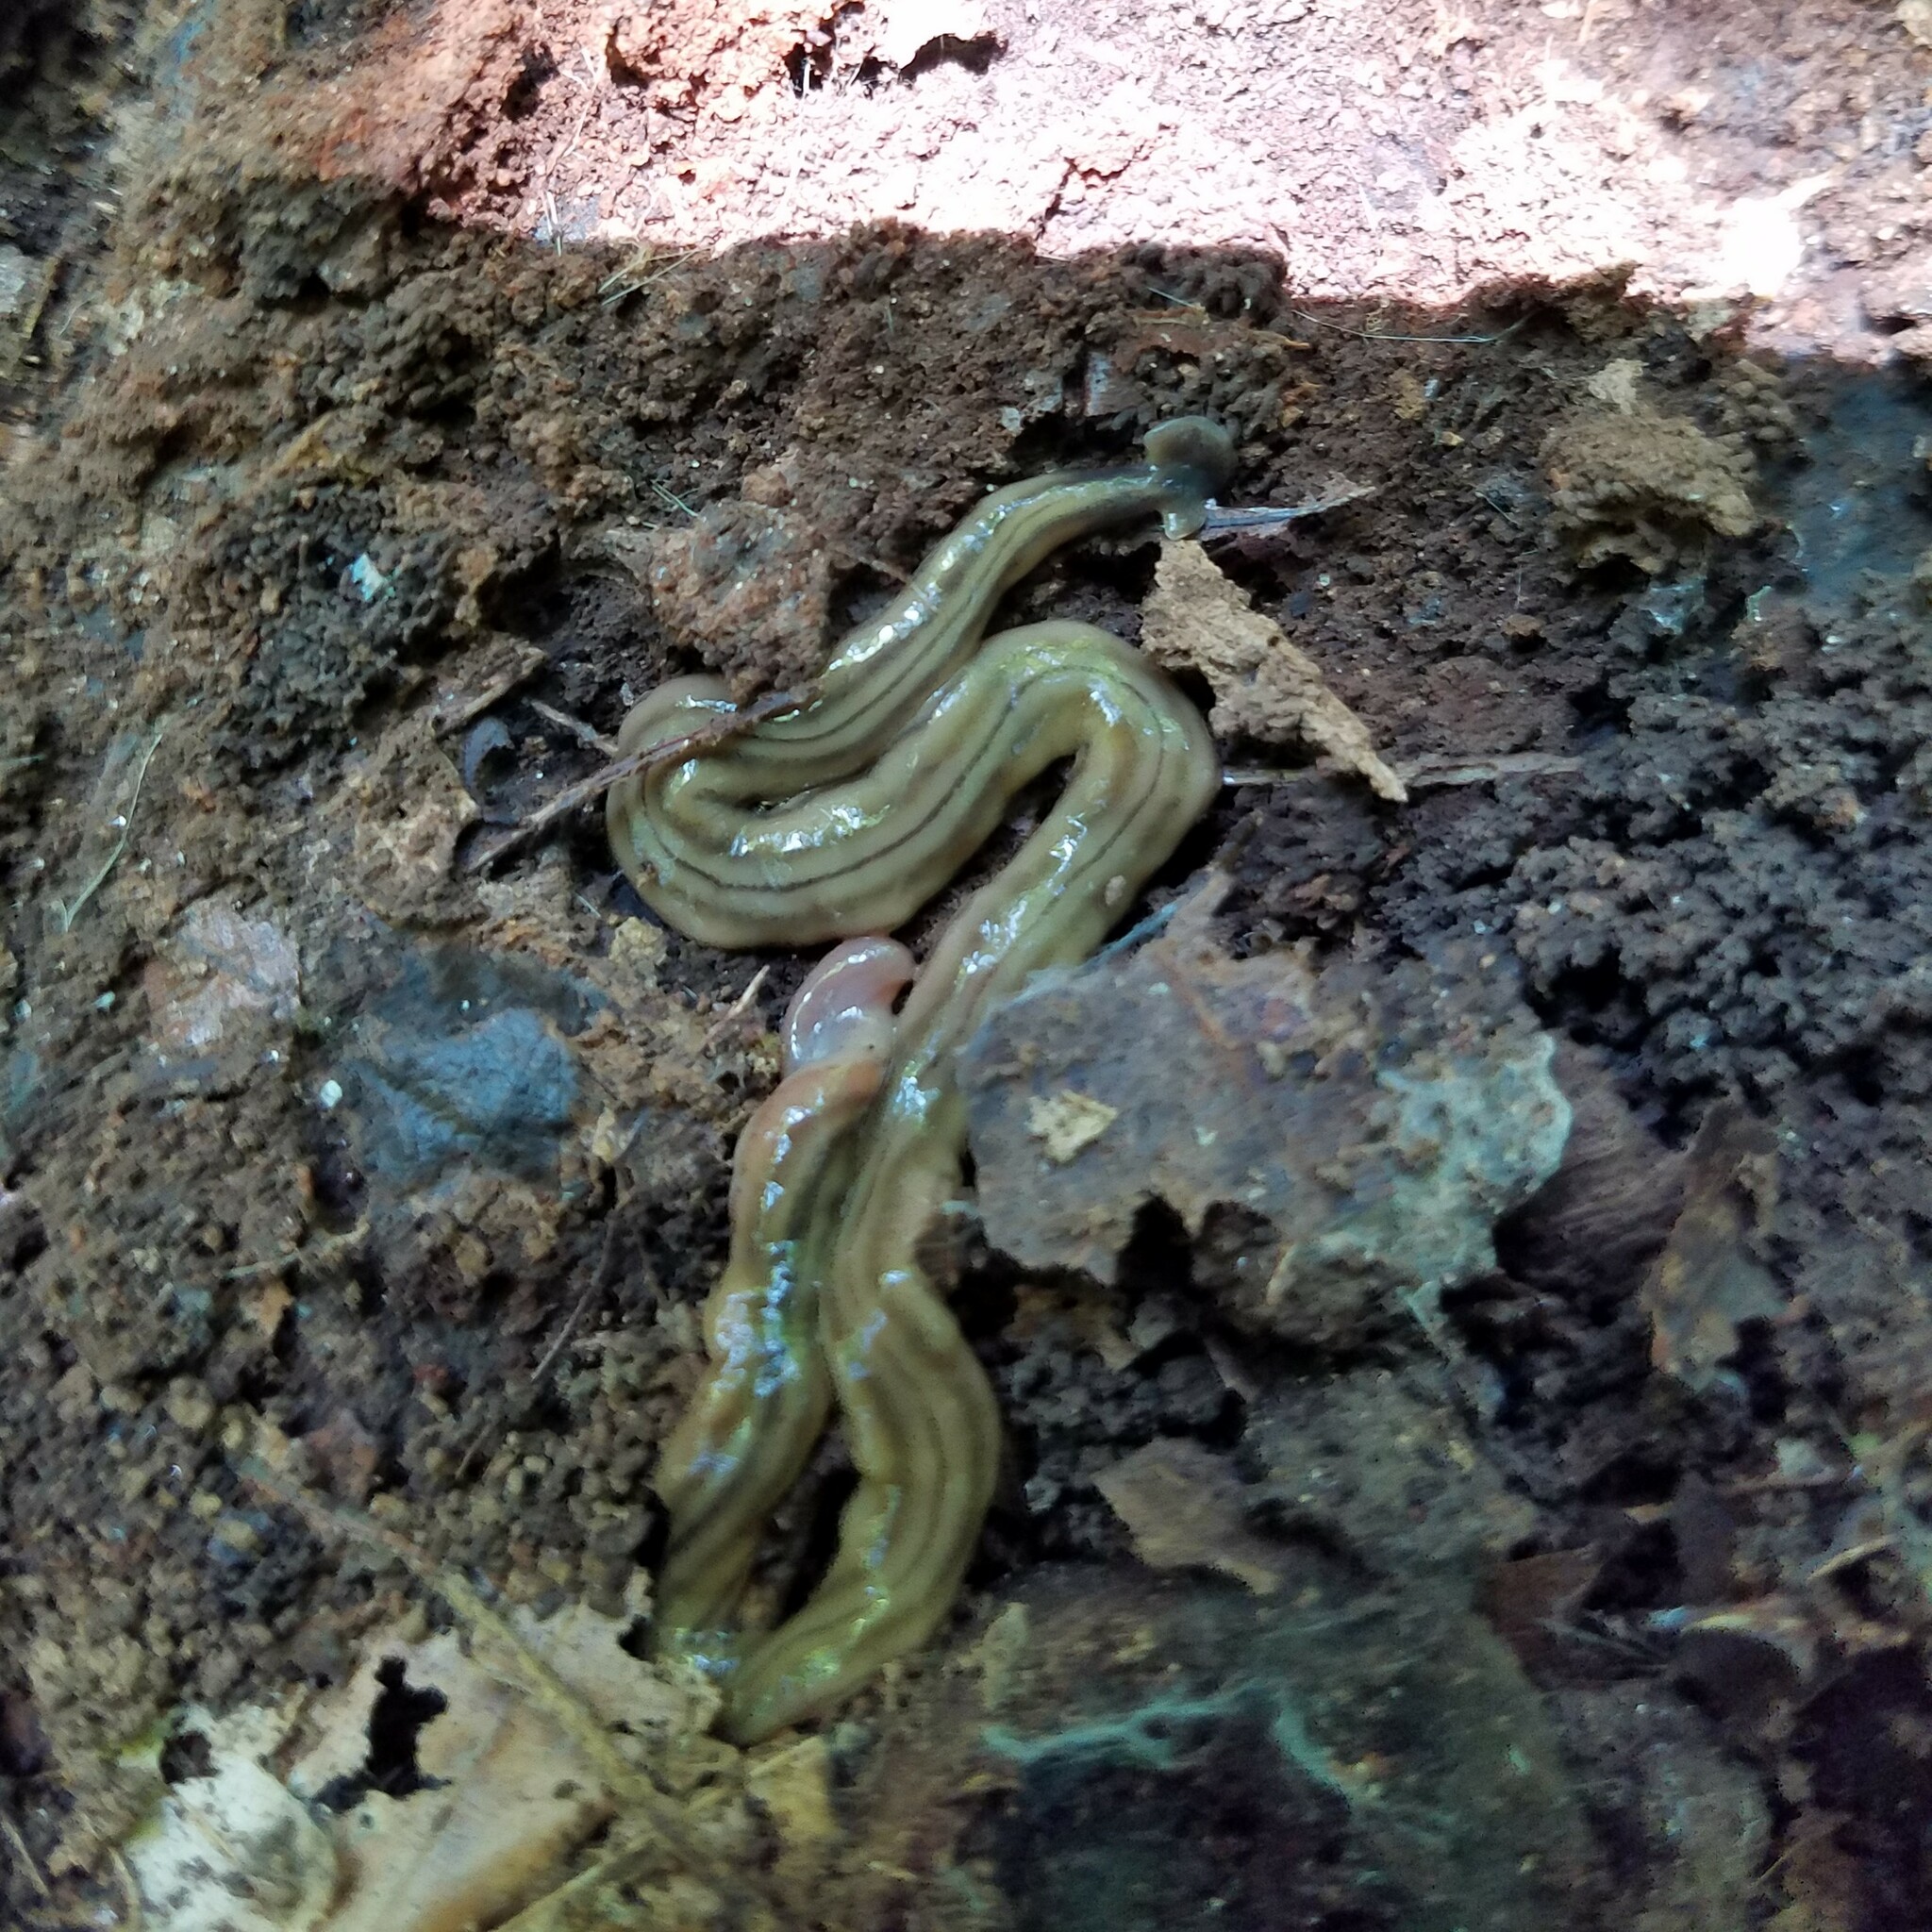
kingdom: Animalia
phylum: Platyhelminthes
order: Tricladida
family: Geoplanidae
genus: Bipalium
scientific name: Bipalium kewense
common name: Hammerhead flatworm
